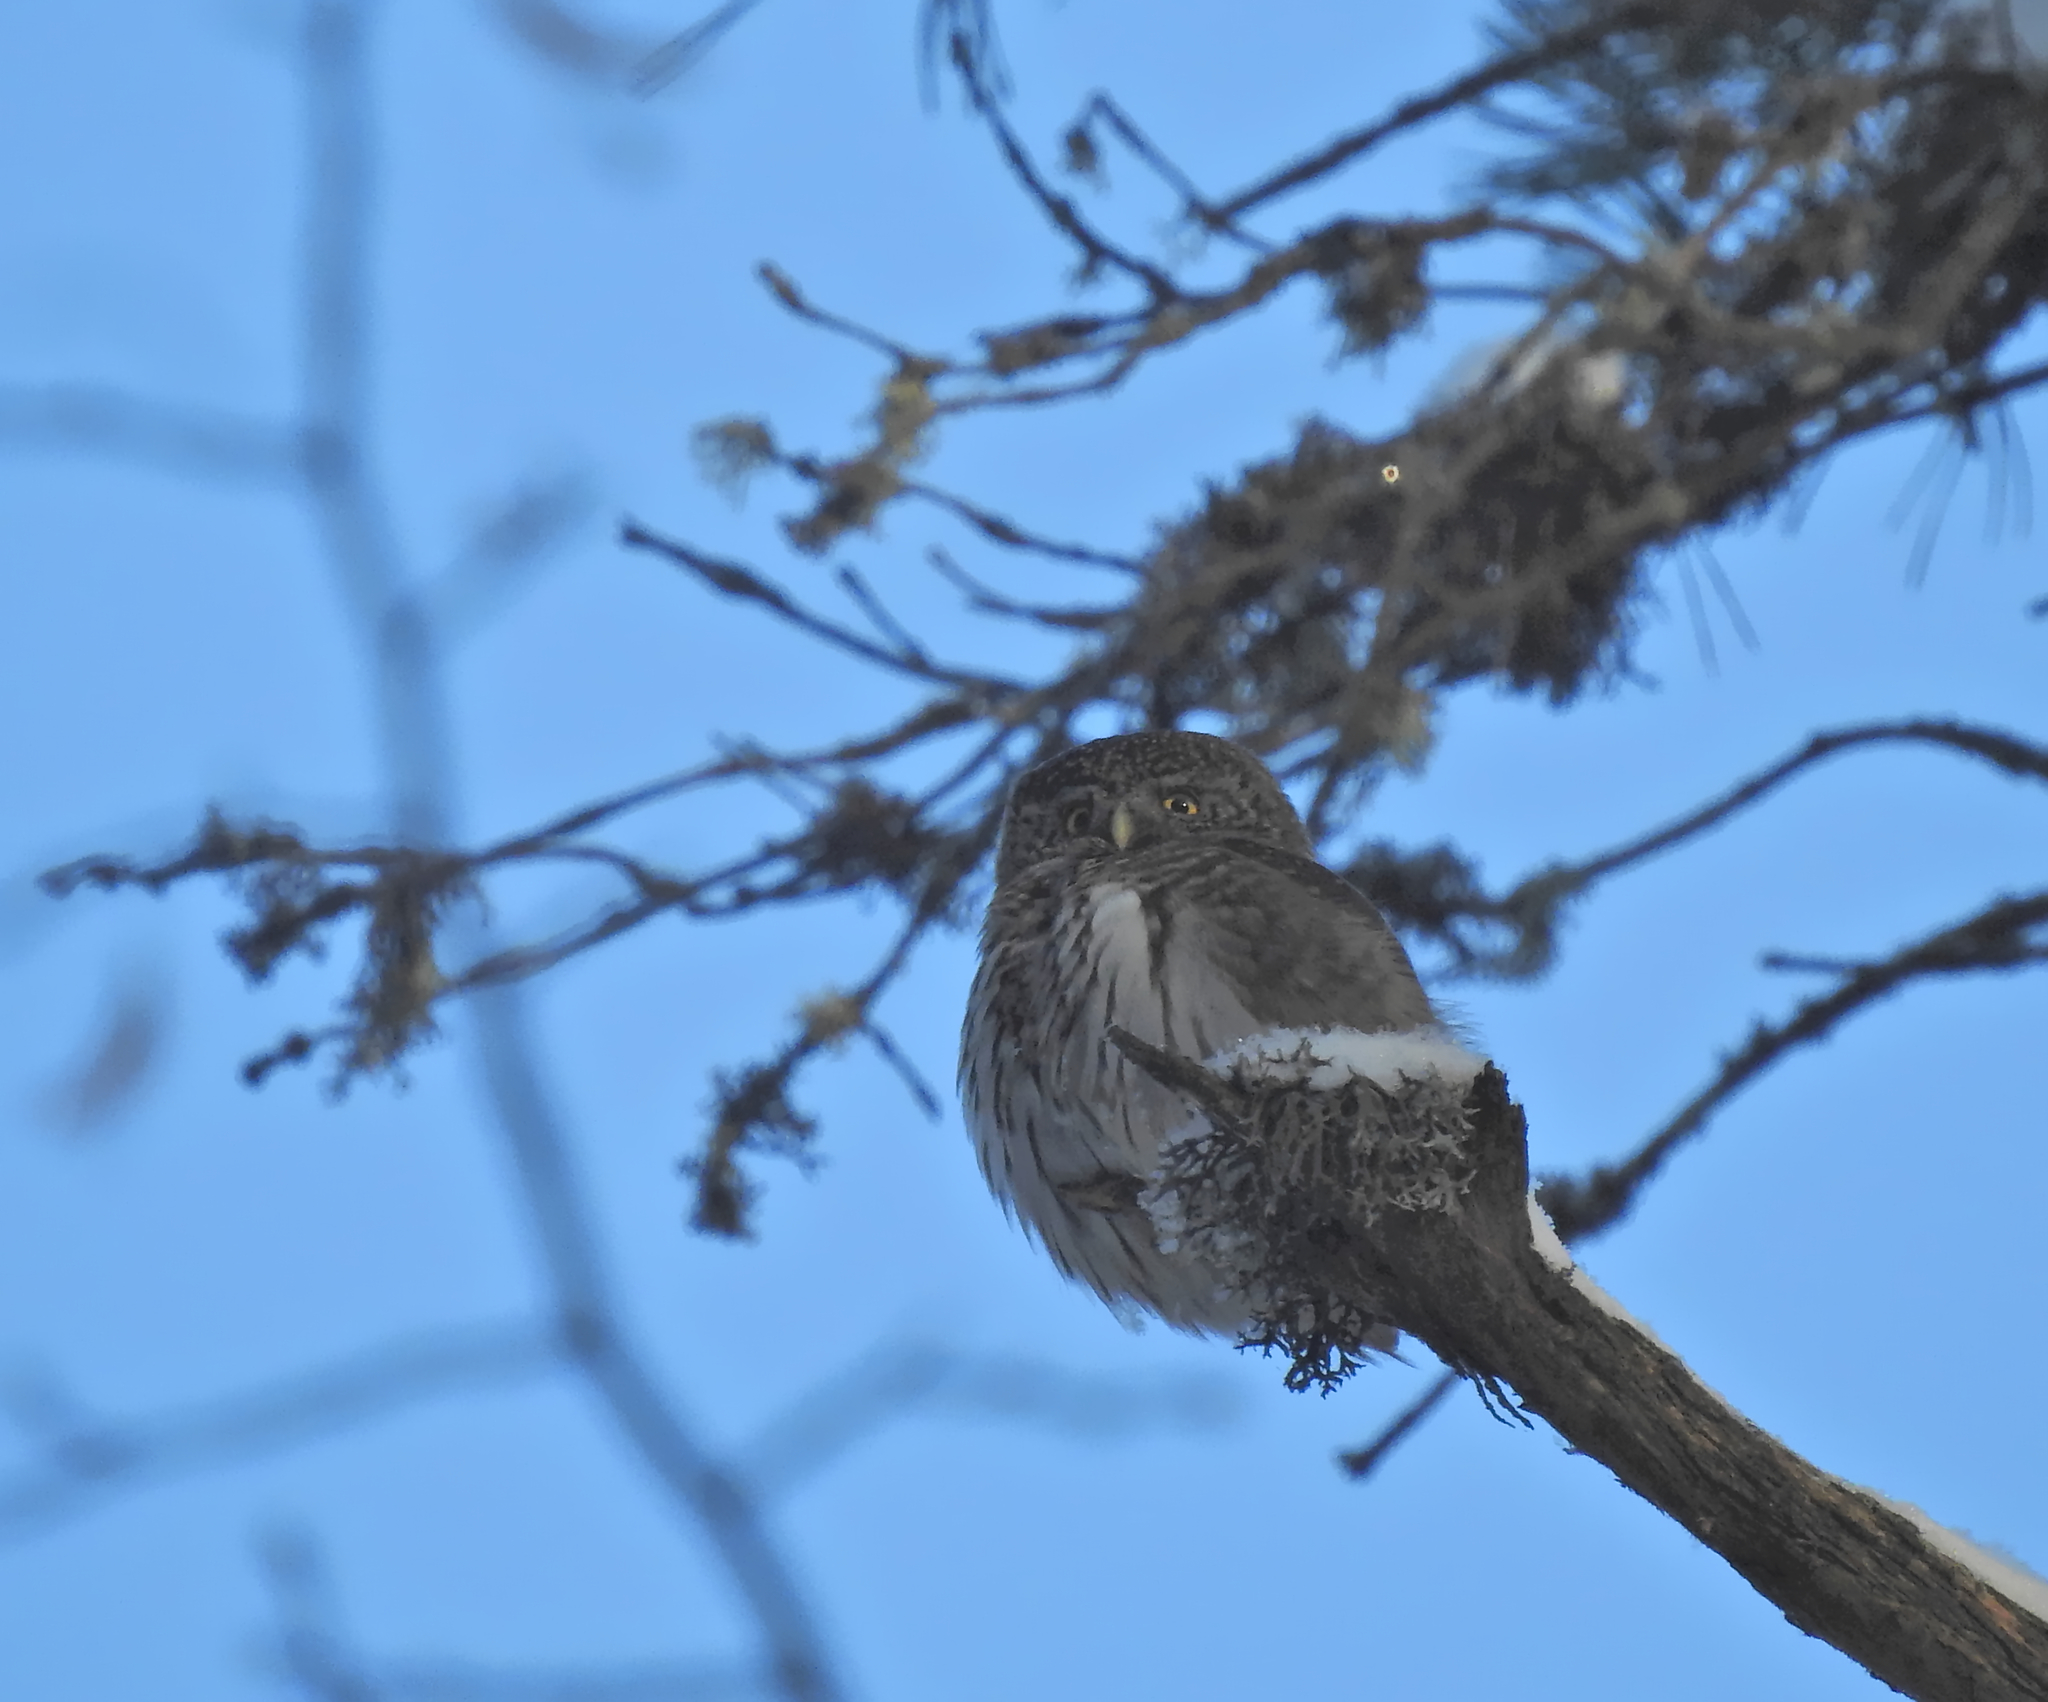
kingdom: Animalia
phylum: Chordata
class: Aves
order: Strigiformes
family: Strigidae
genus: Glaucidium
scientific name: Glaucidium passerinum
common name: Eurasian pygmy owl
